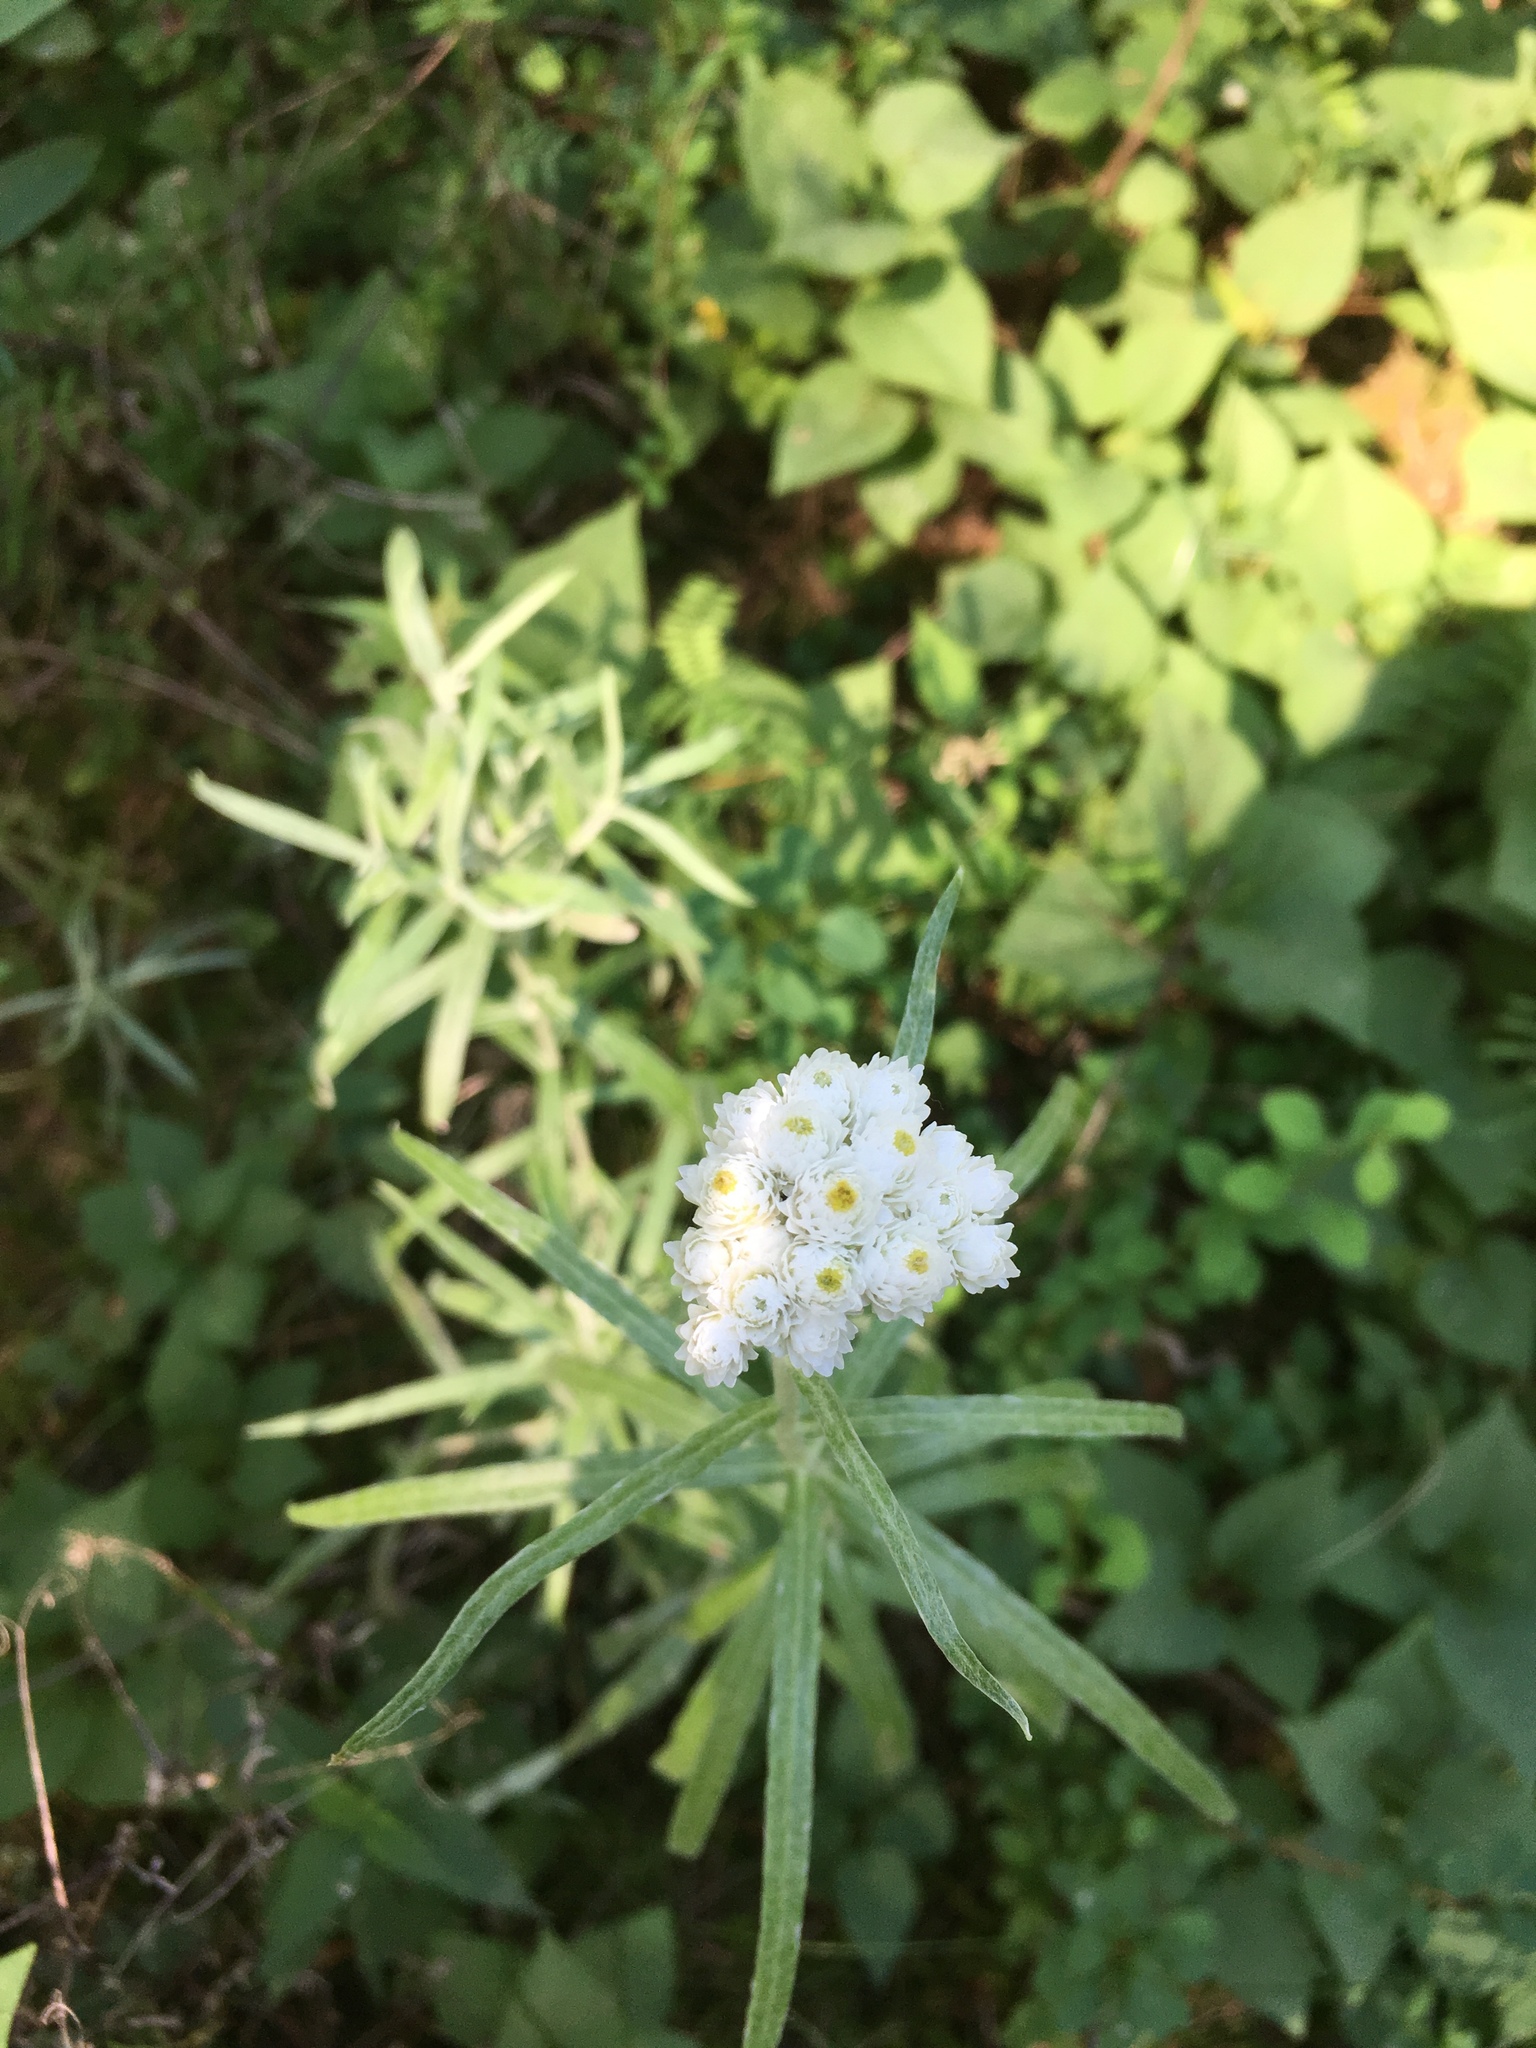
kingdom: Plantae
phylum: Tracheophyta
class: Magnoliopsida
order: Asterales
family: Asteraceae
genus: Anaphalis
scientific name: Anaphalis margaritacea
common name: Pearly everlasting
